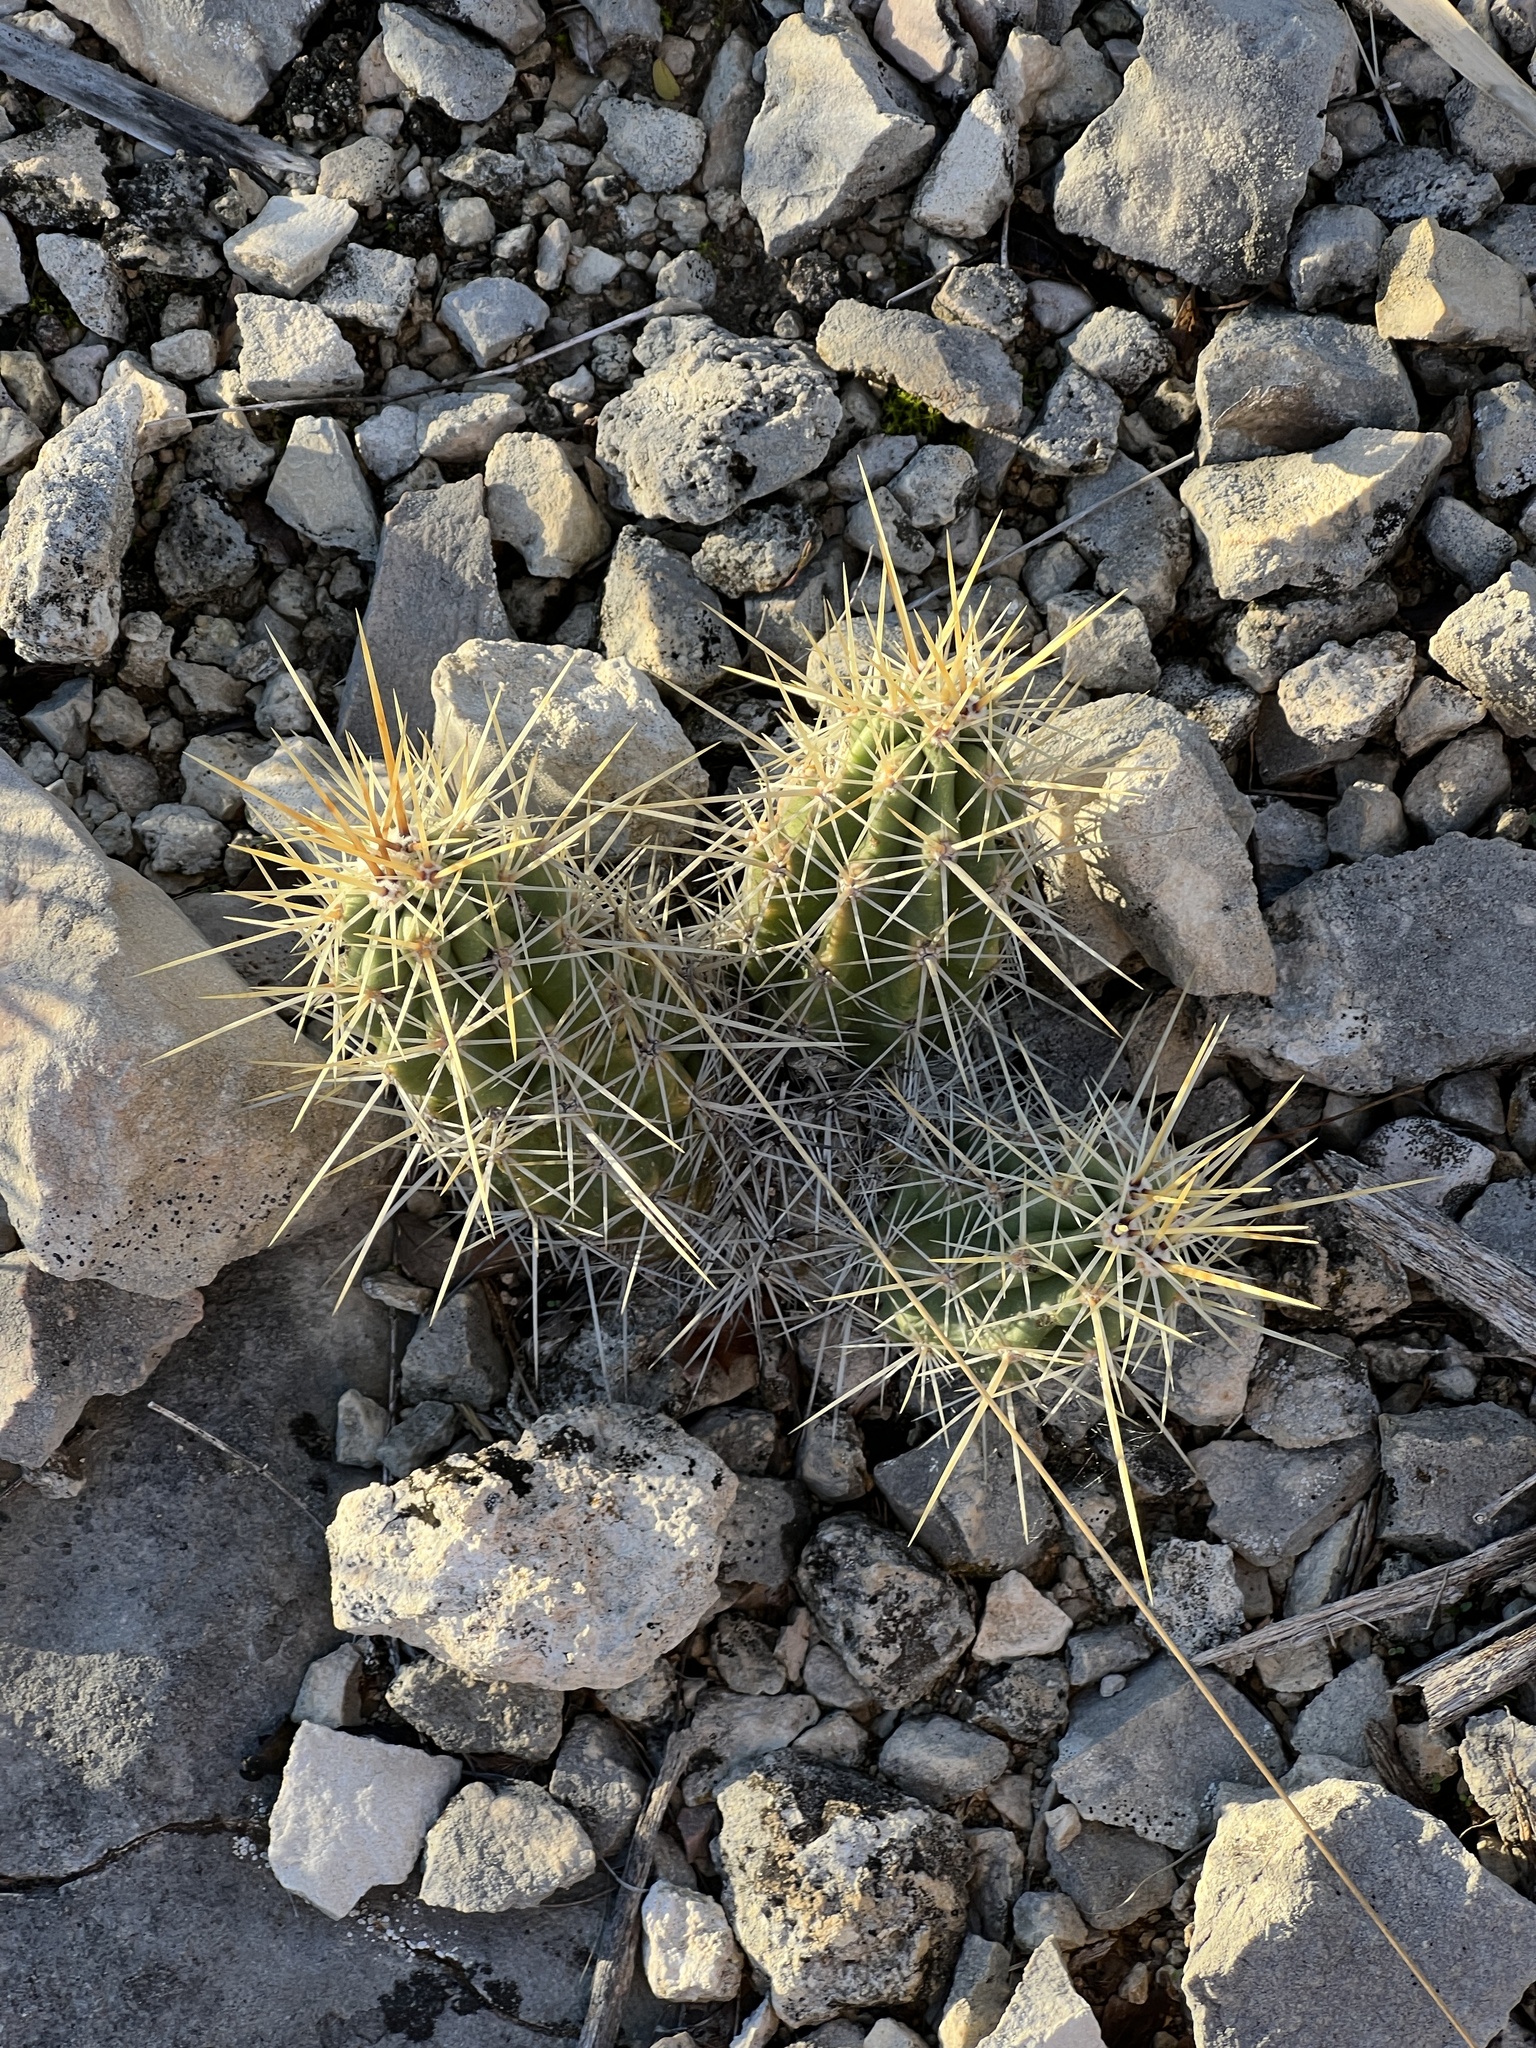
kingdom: Plantae
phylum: Tracheophyta
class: Magnoliopsida
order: Caryophyllales
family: Cactaceae
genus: Echinocereus
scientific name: Echinocereus enneacanthus
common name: Pitaya
